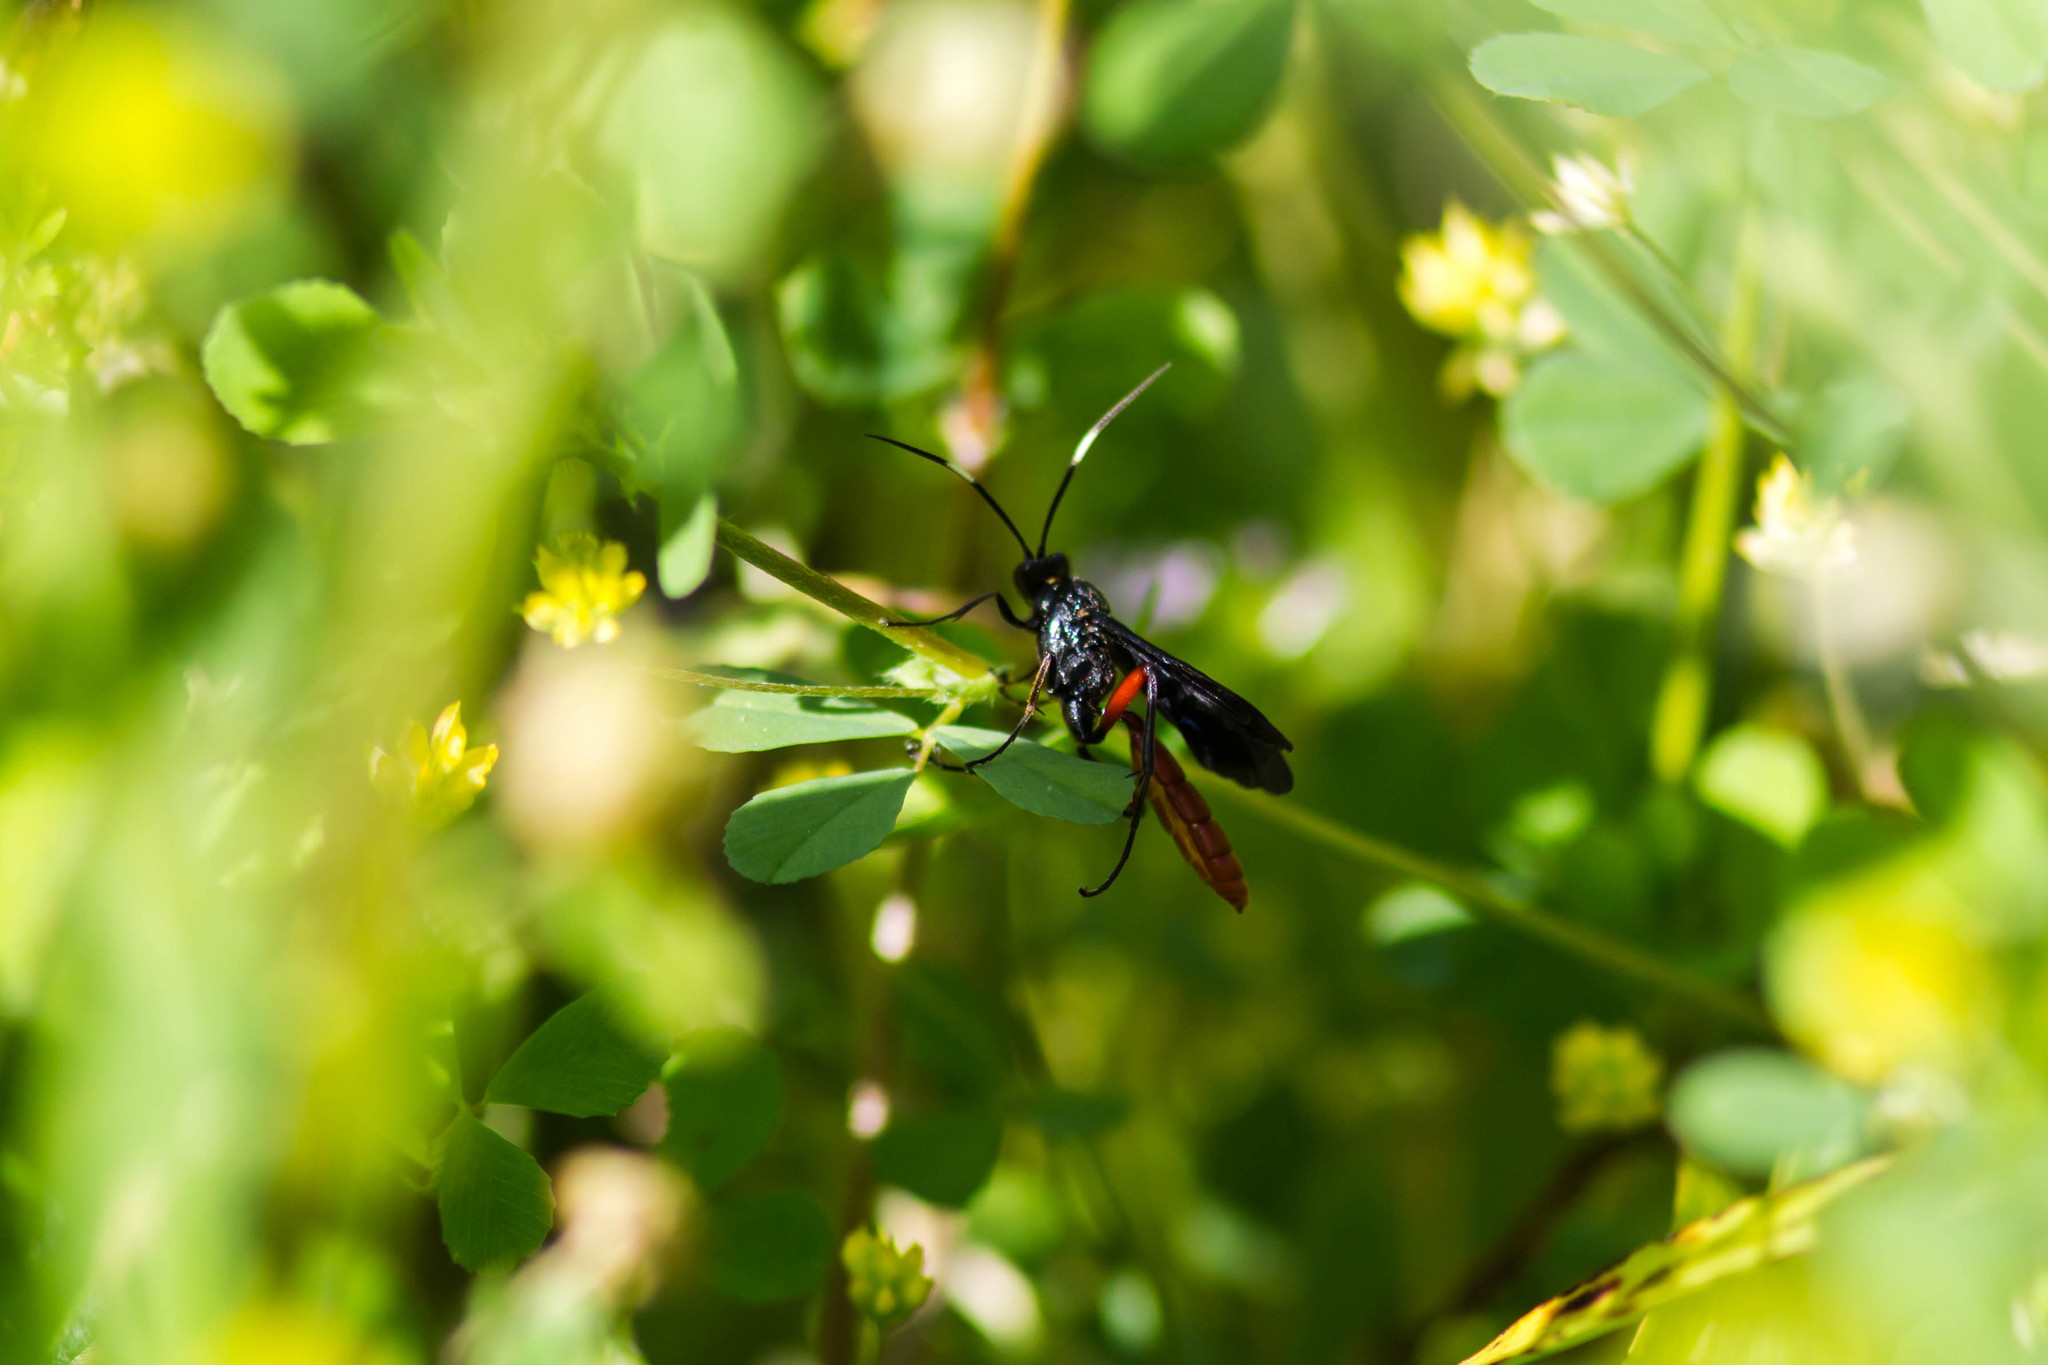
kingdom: Animalia
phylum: Arthropoda
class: Insecta
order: Hymenoptera
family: Ichneumonidae
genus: Limonethe
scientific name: Limonethe maurator
